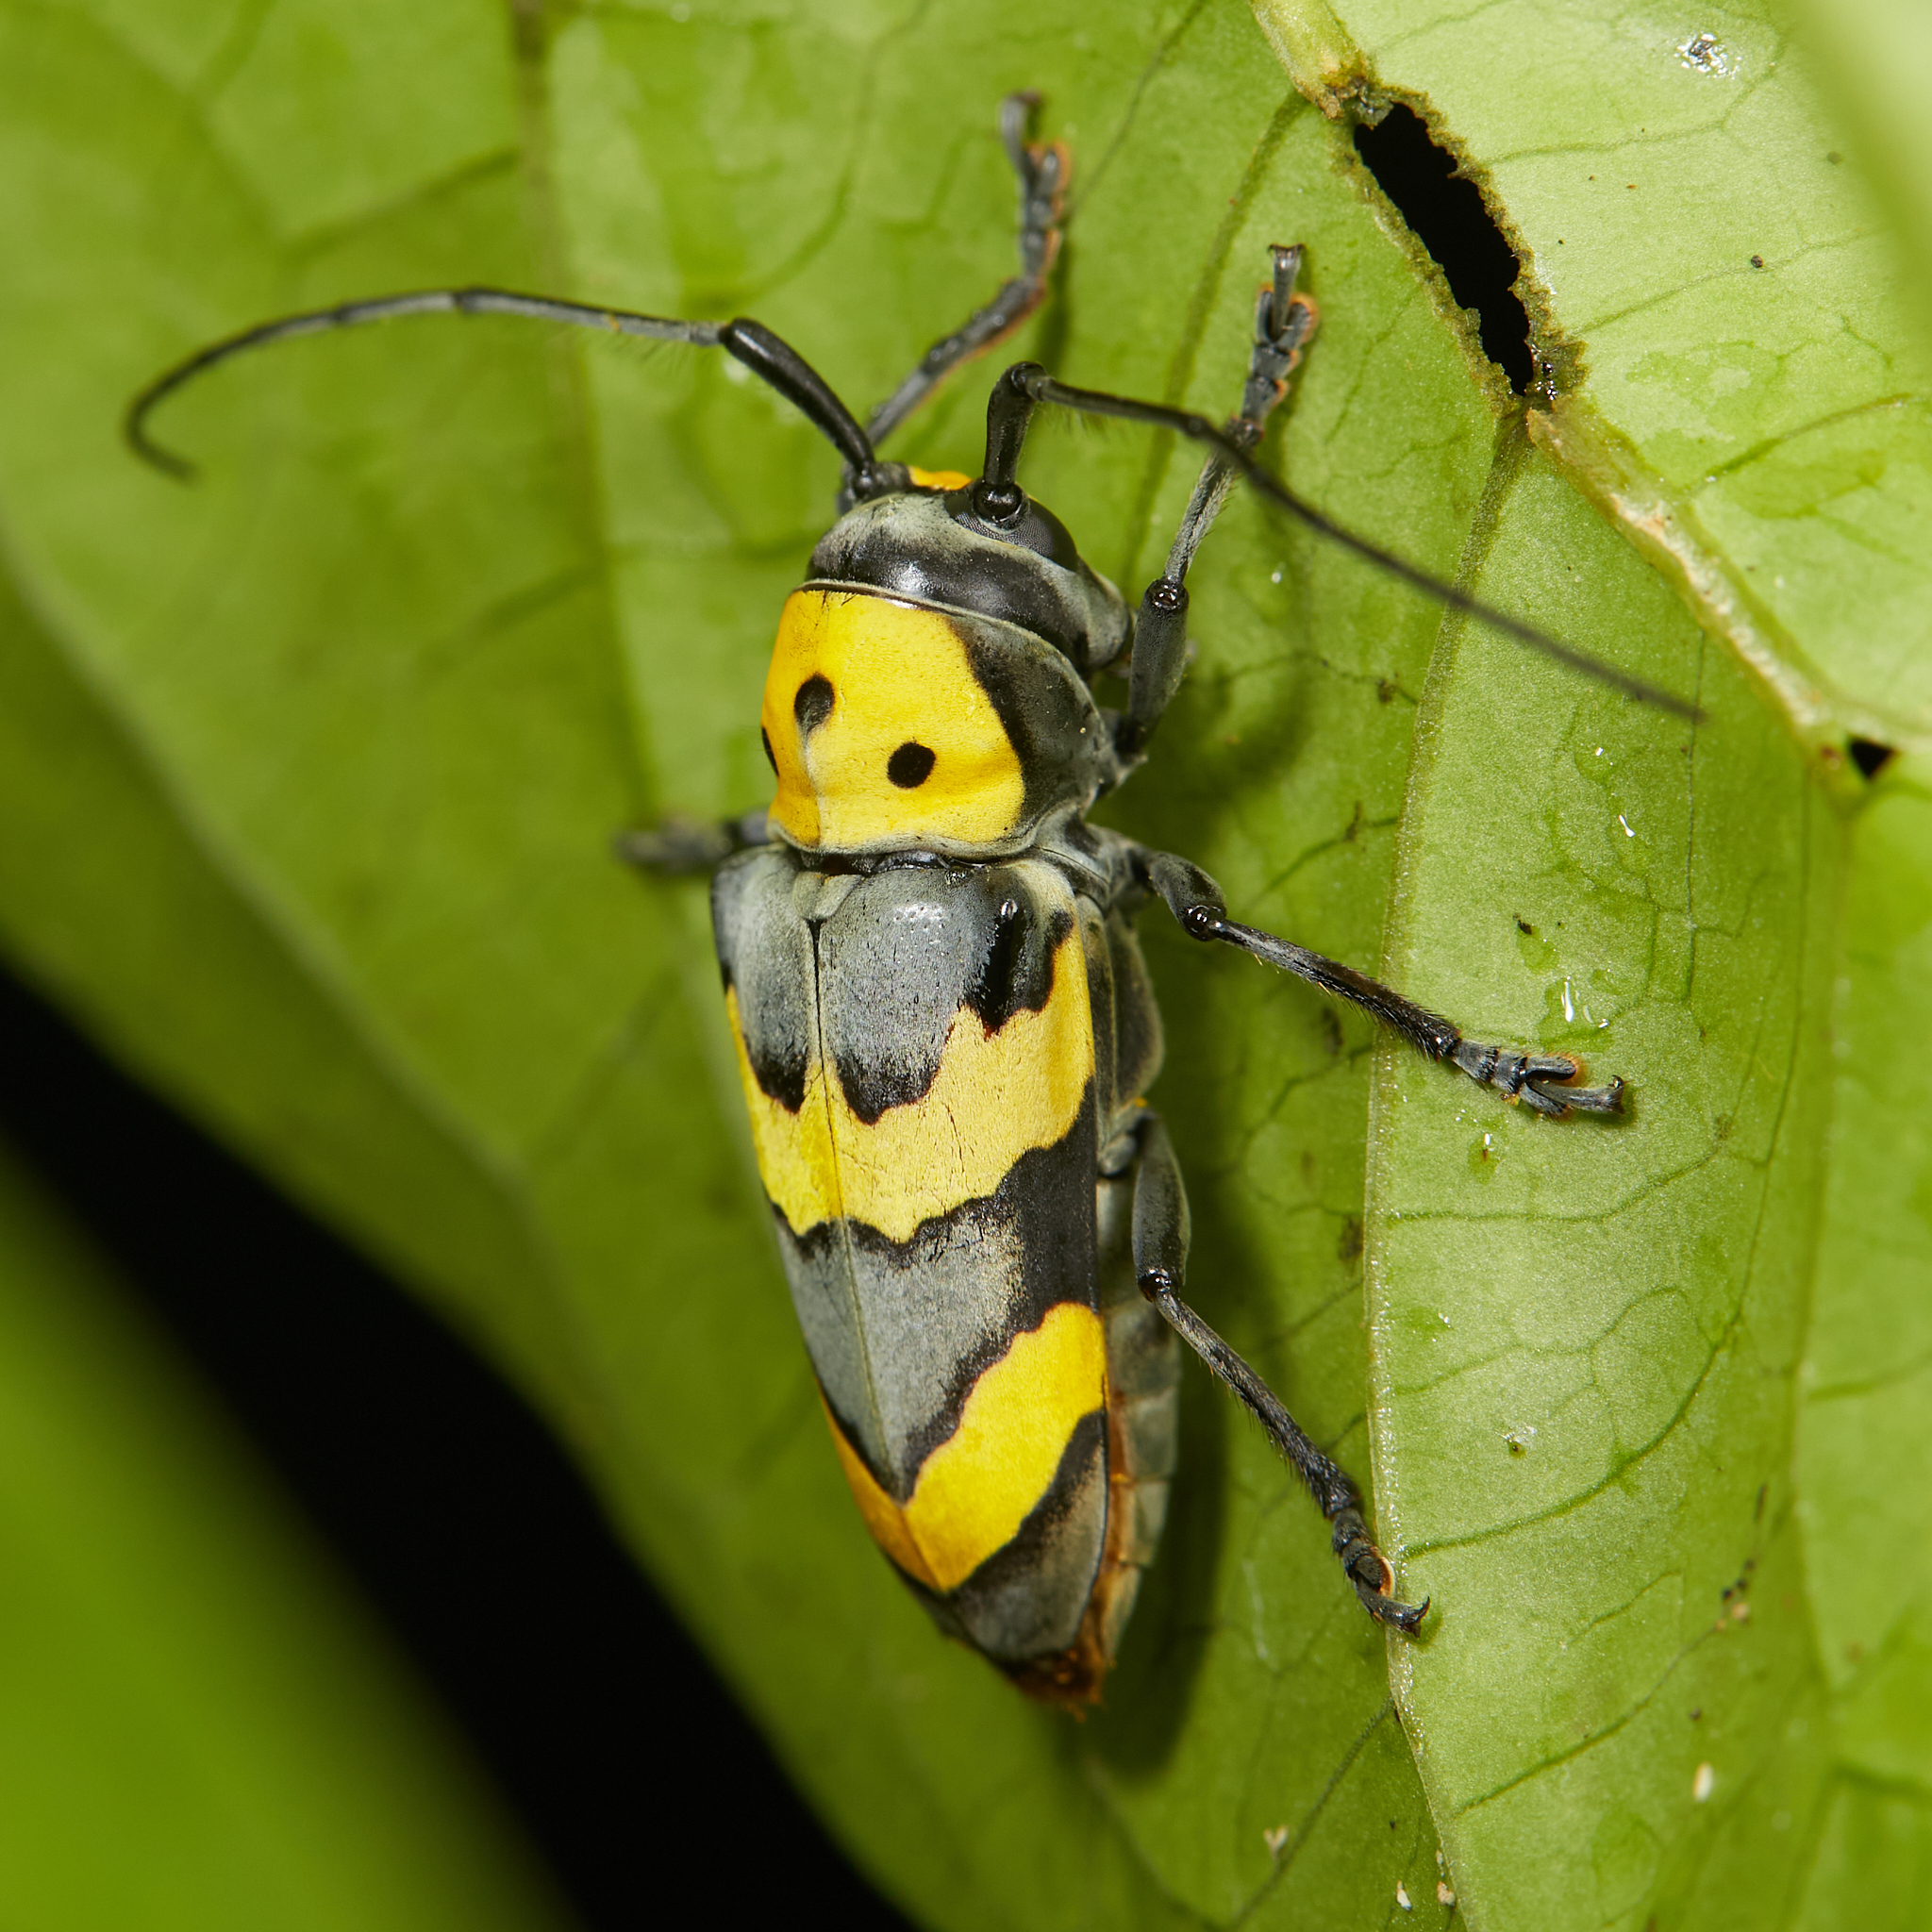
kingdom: Animalia
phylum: Arthropoda
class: Insecta
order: Coleoptera
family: Cerambycidae
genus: Oedudes
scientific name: Oedudes bifasciatus
